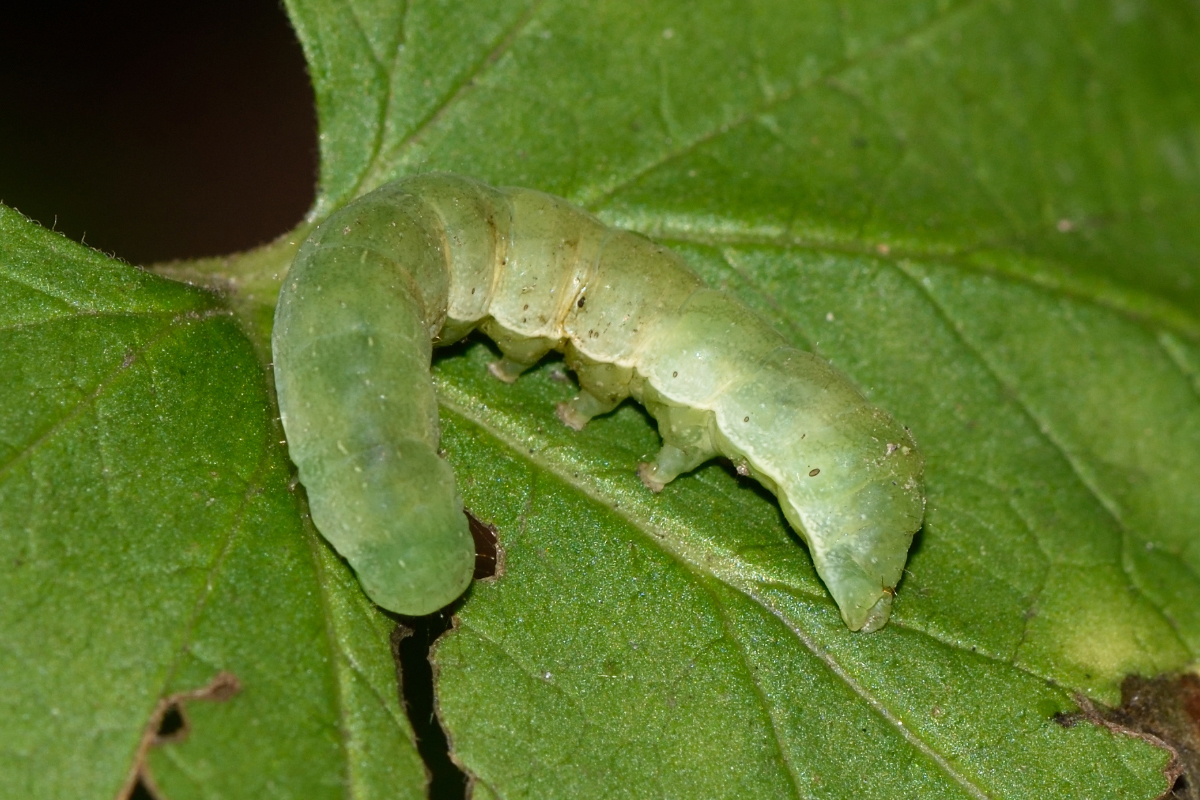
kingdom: Animalia
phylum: Arthropoda
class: Insecta
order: Lepidoptera
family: Noctuidae
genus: Euplexia
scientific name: Euplexia lucipara
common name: Small angle shades
